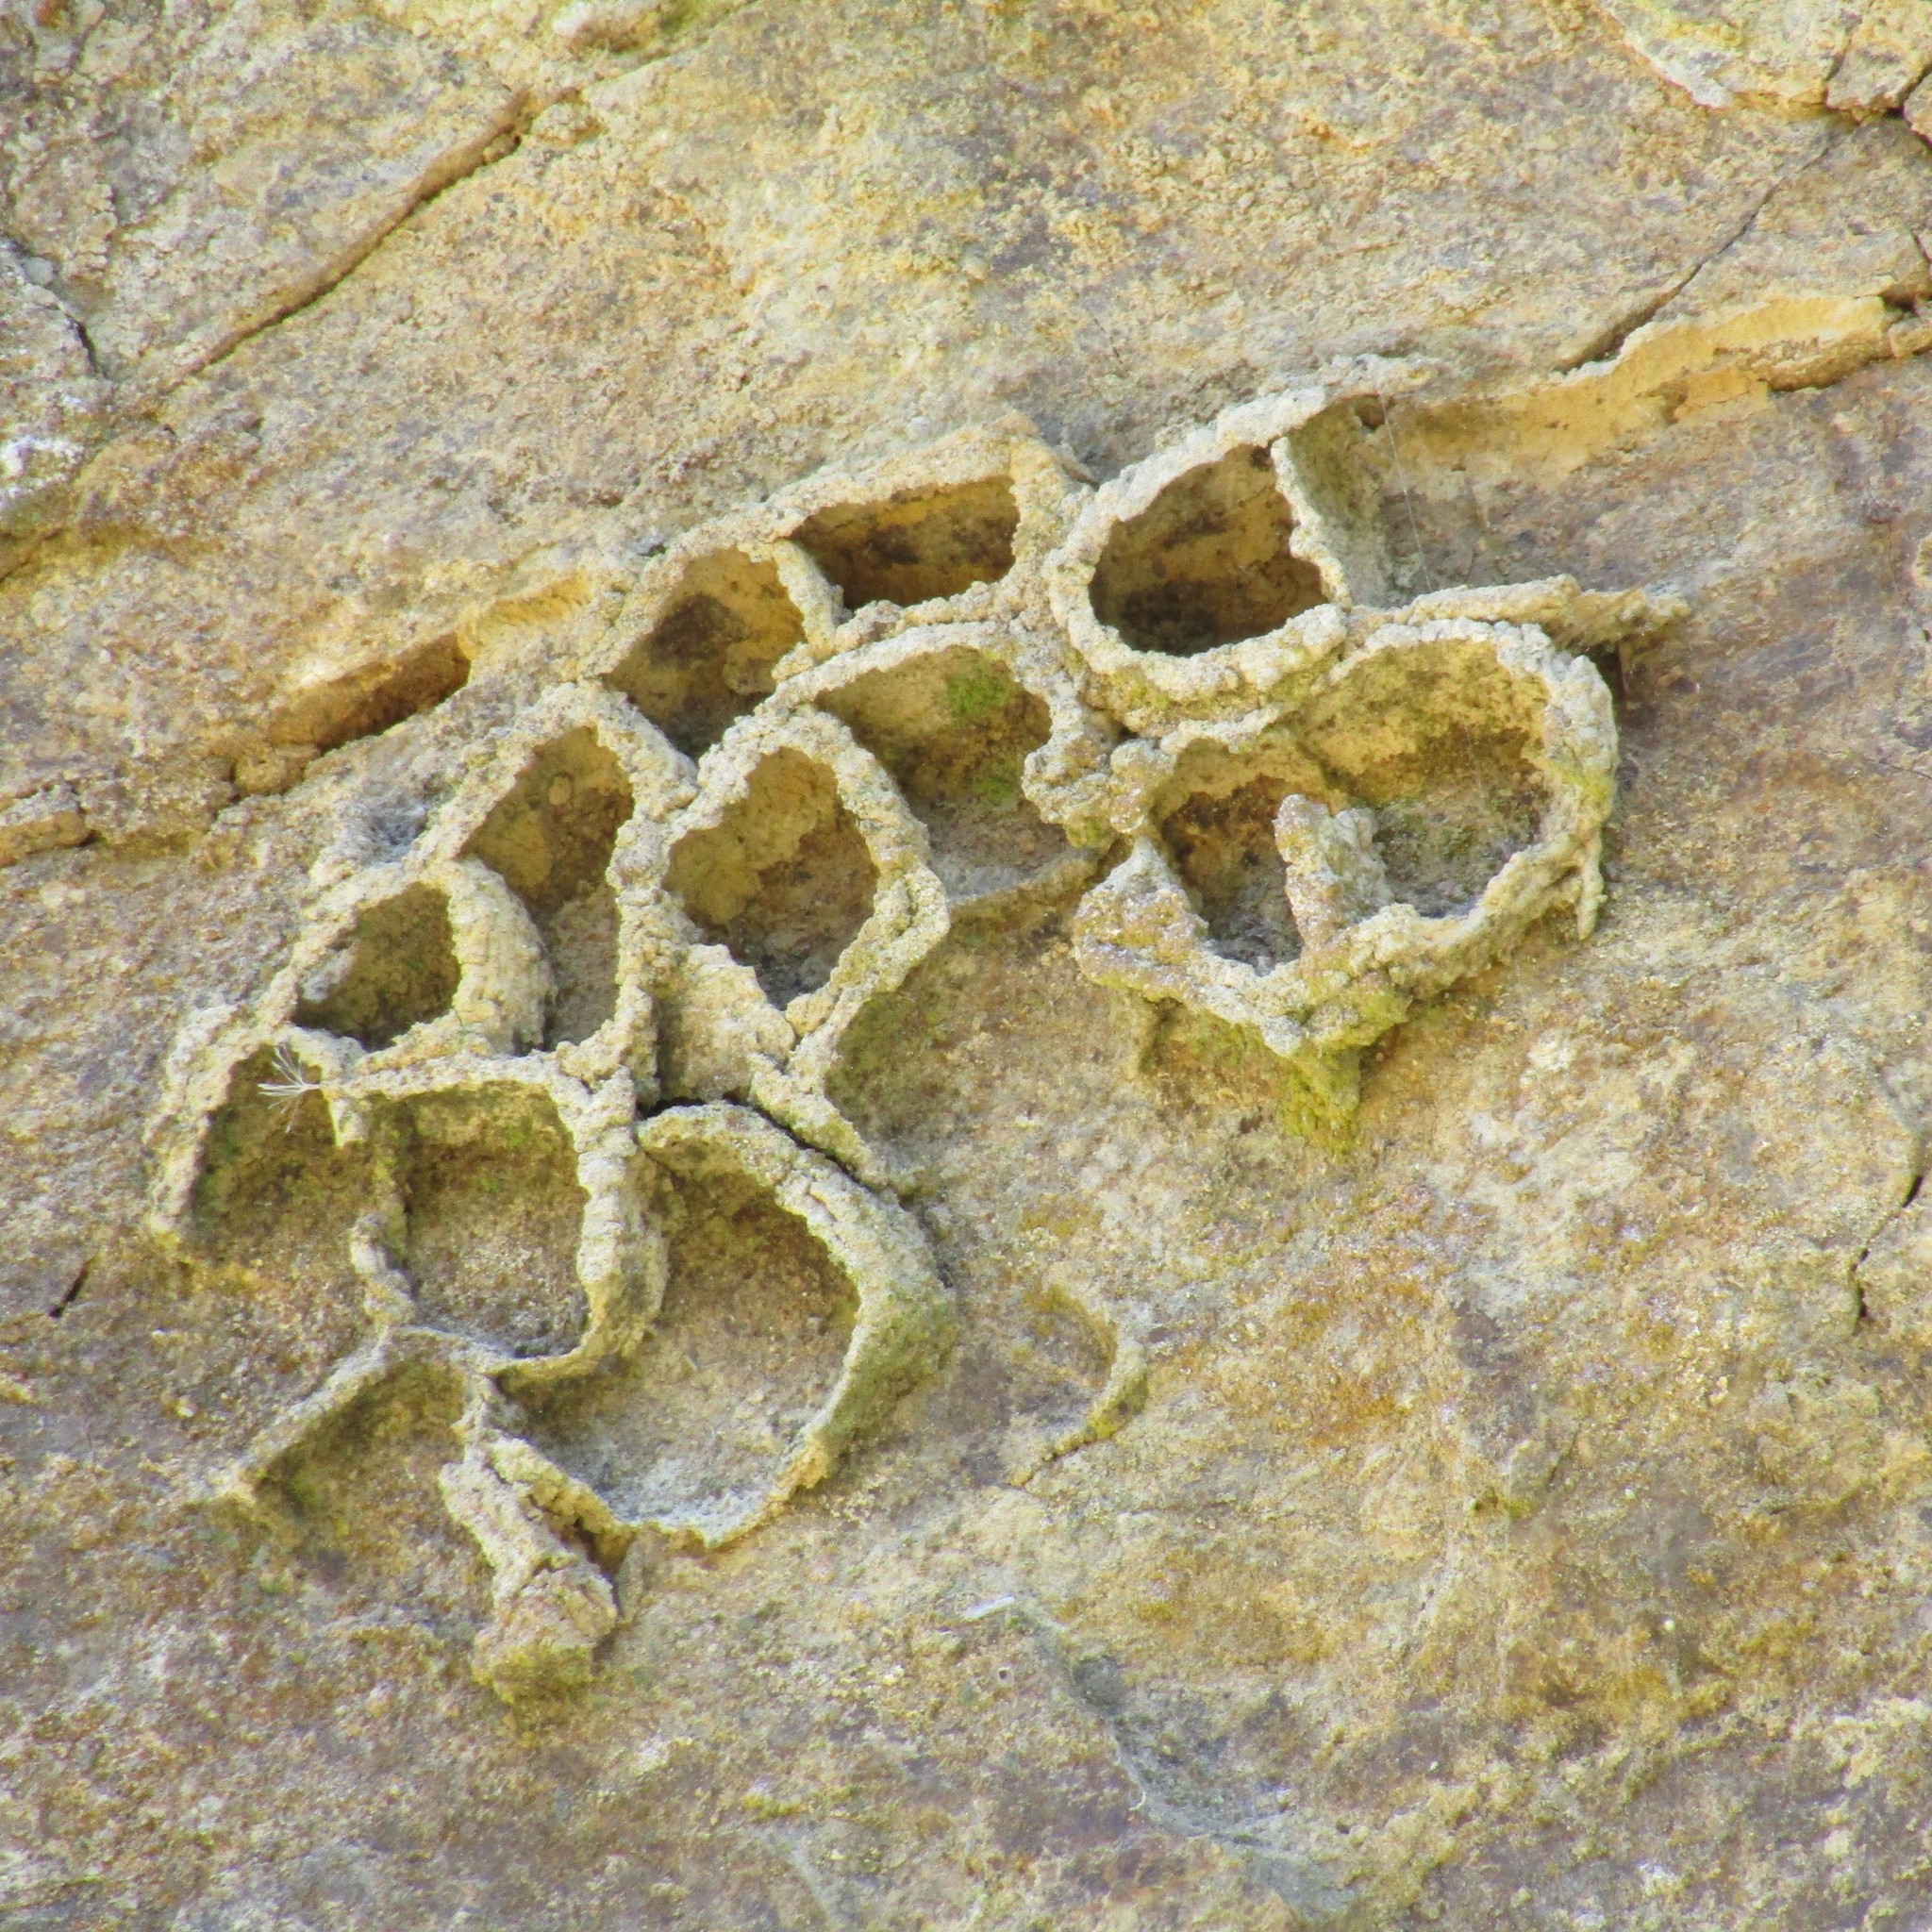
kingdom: Animalia
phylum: Arthropoda
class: Insecta
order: Hymenoptera
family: Crabronidae
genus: Pison
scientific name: Pison spinolae
